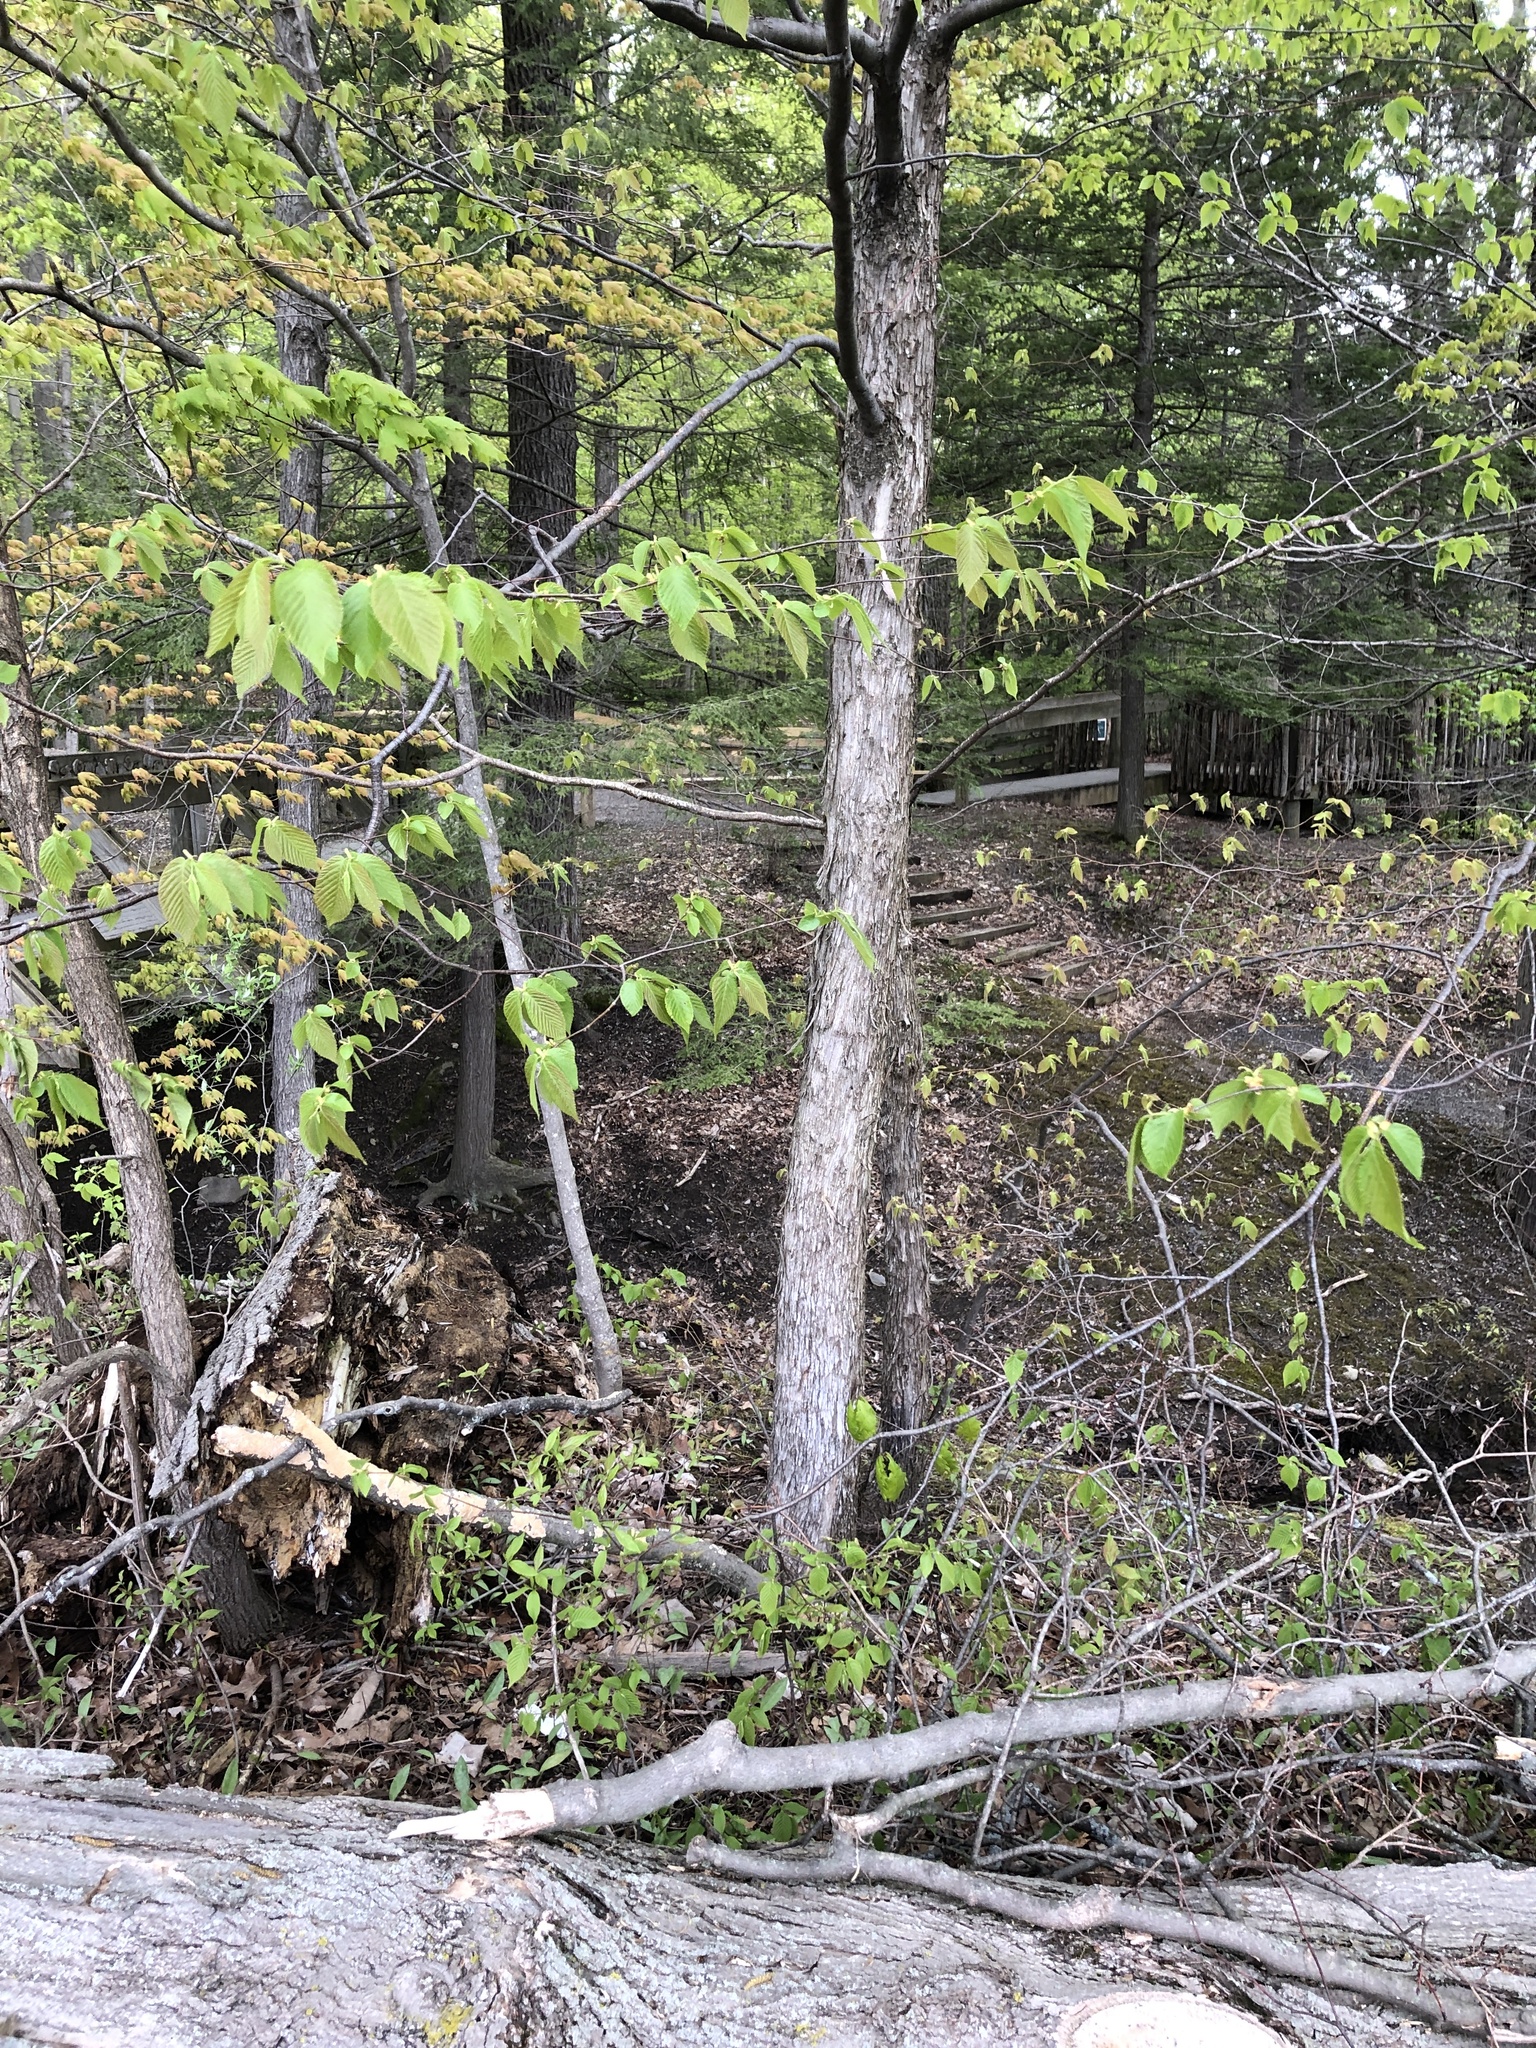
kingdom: Plantae
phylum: Tracheophyta
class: Magnoliopsida
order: Fagales
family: Betulaceae
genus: Ostrya
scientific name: Ostrya virginiana
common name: Ironwood
